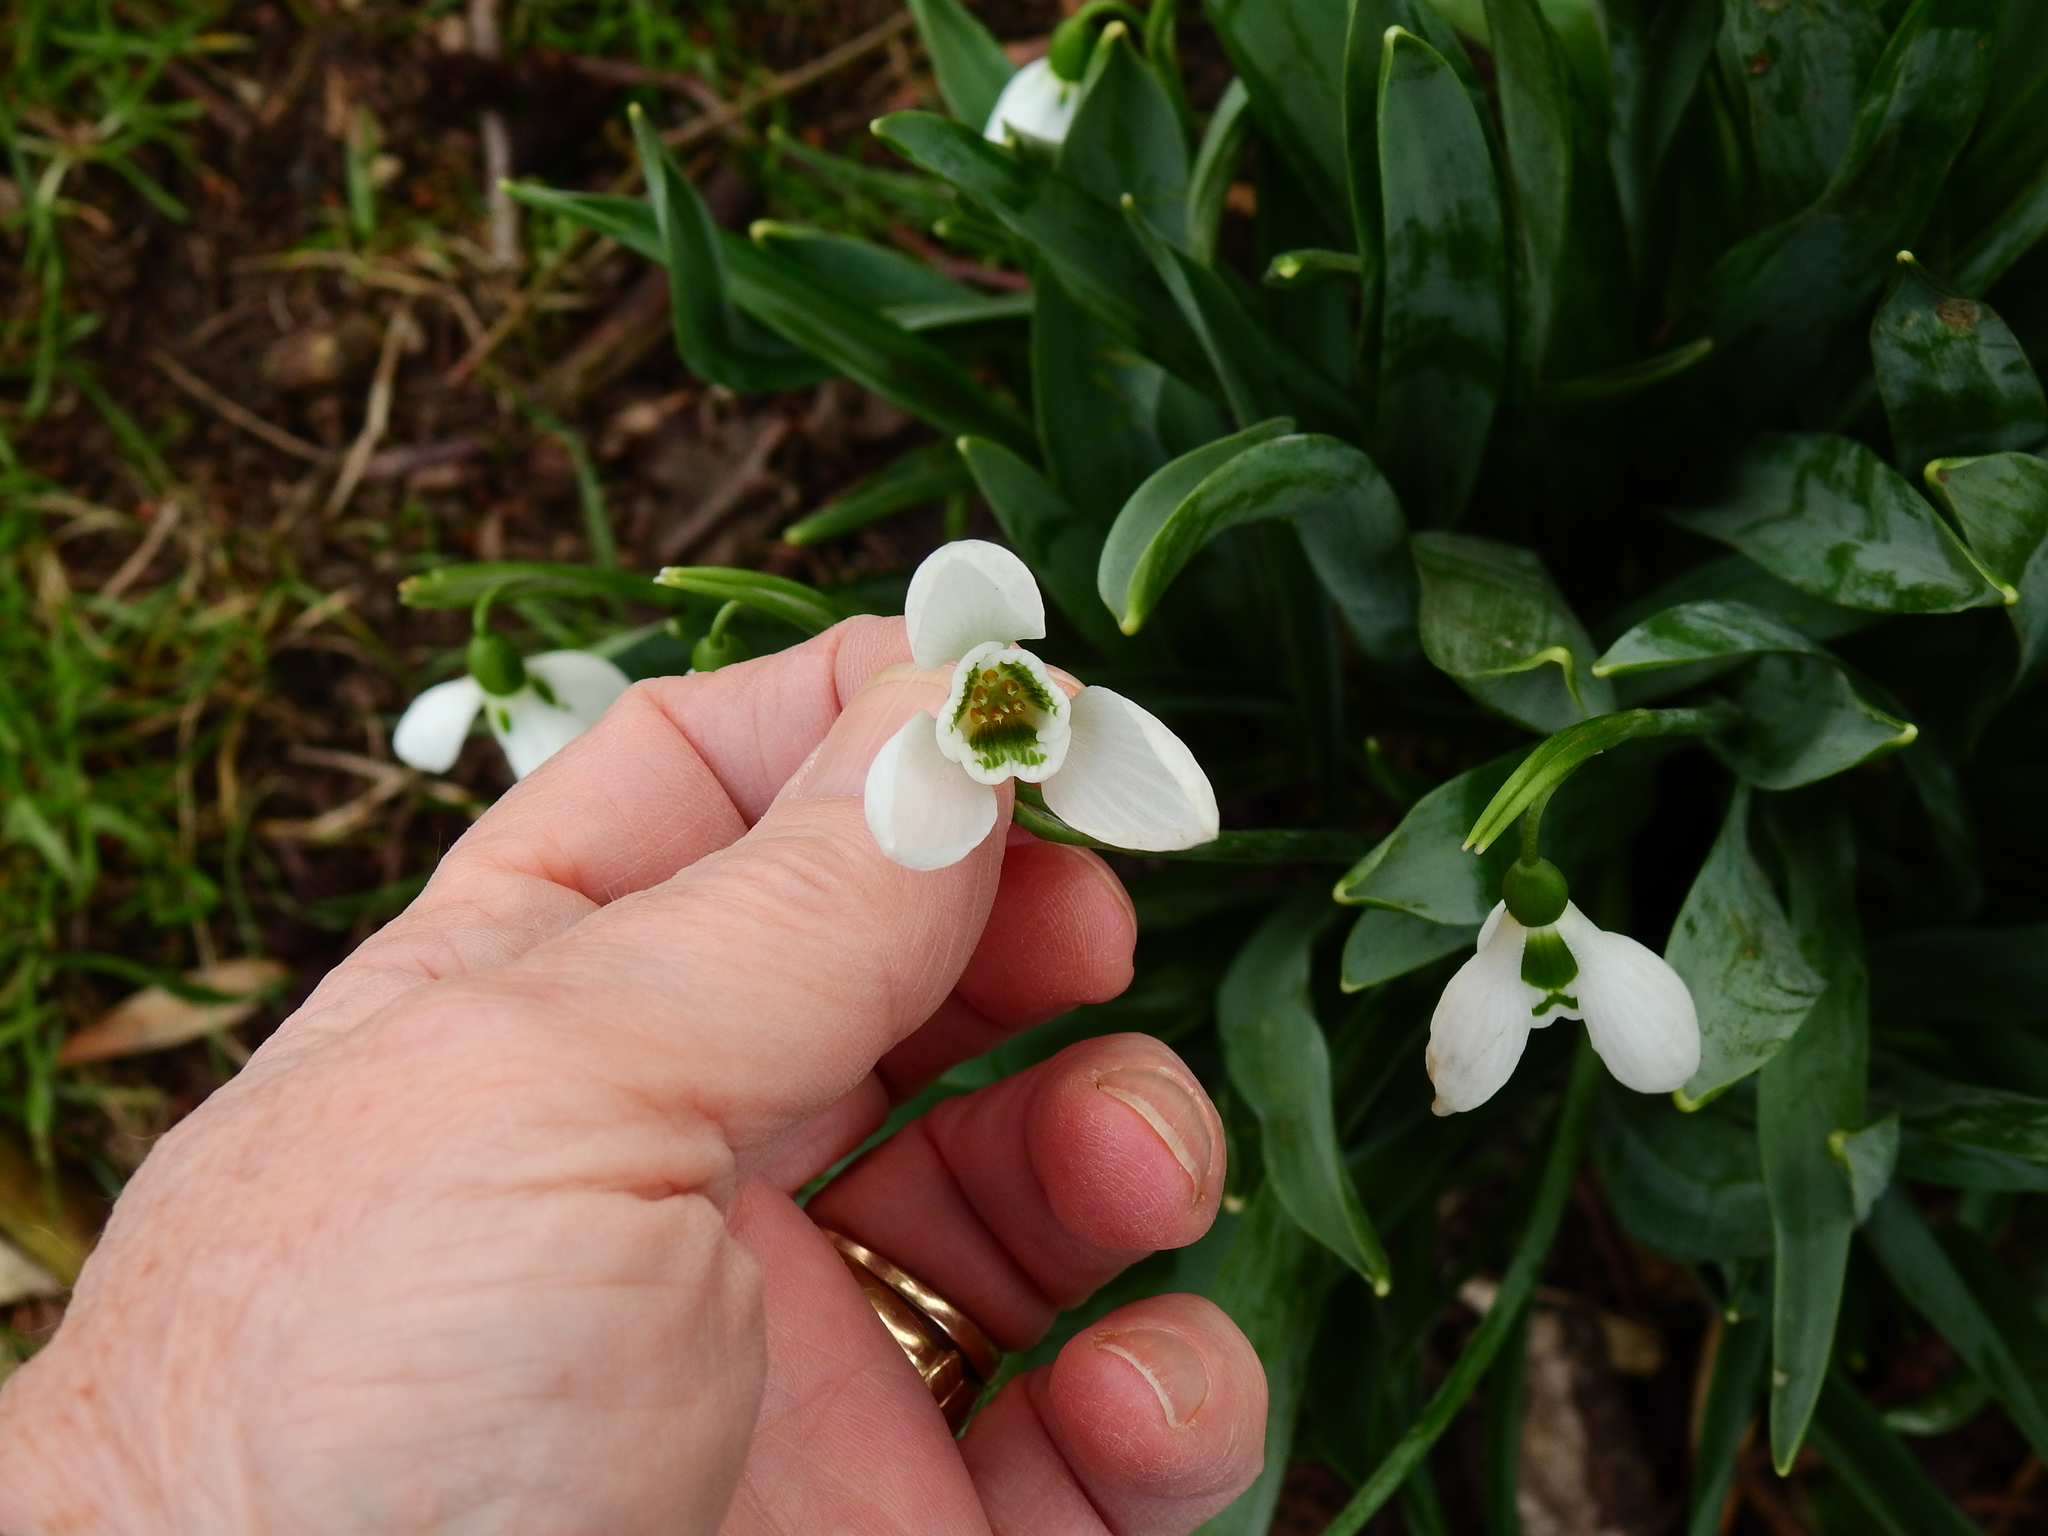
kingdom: Plantae
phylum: Tracheophyta
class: Liliopsida
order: Asparagales
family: Amaryllidaceae
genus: Galanthus
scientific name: Galanthus elwesii
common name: Greater snowdrop
